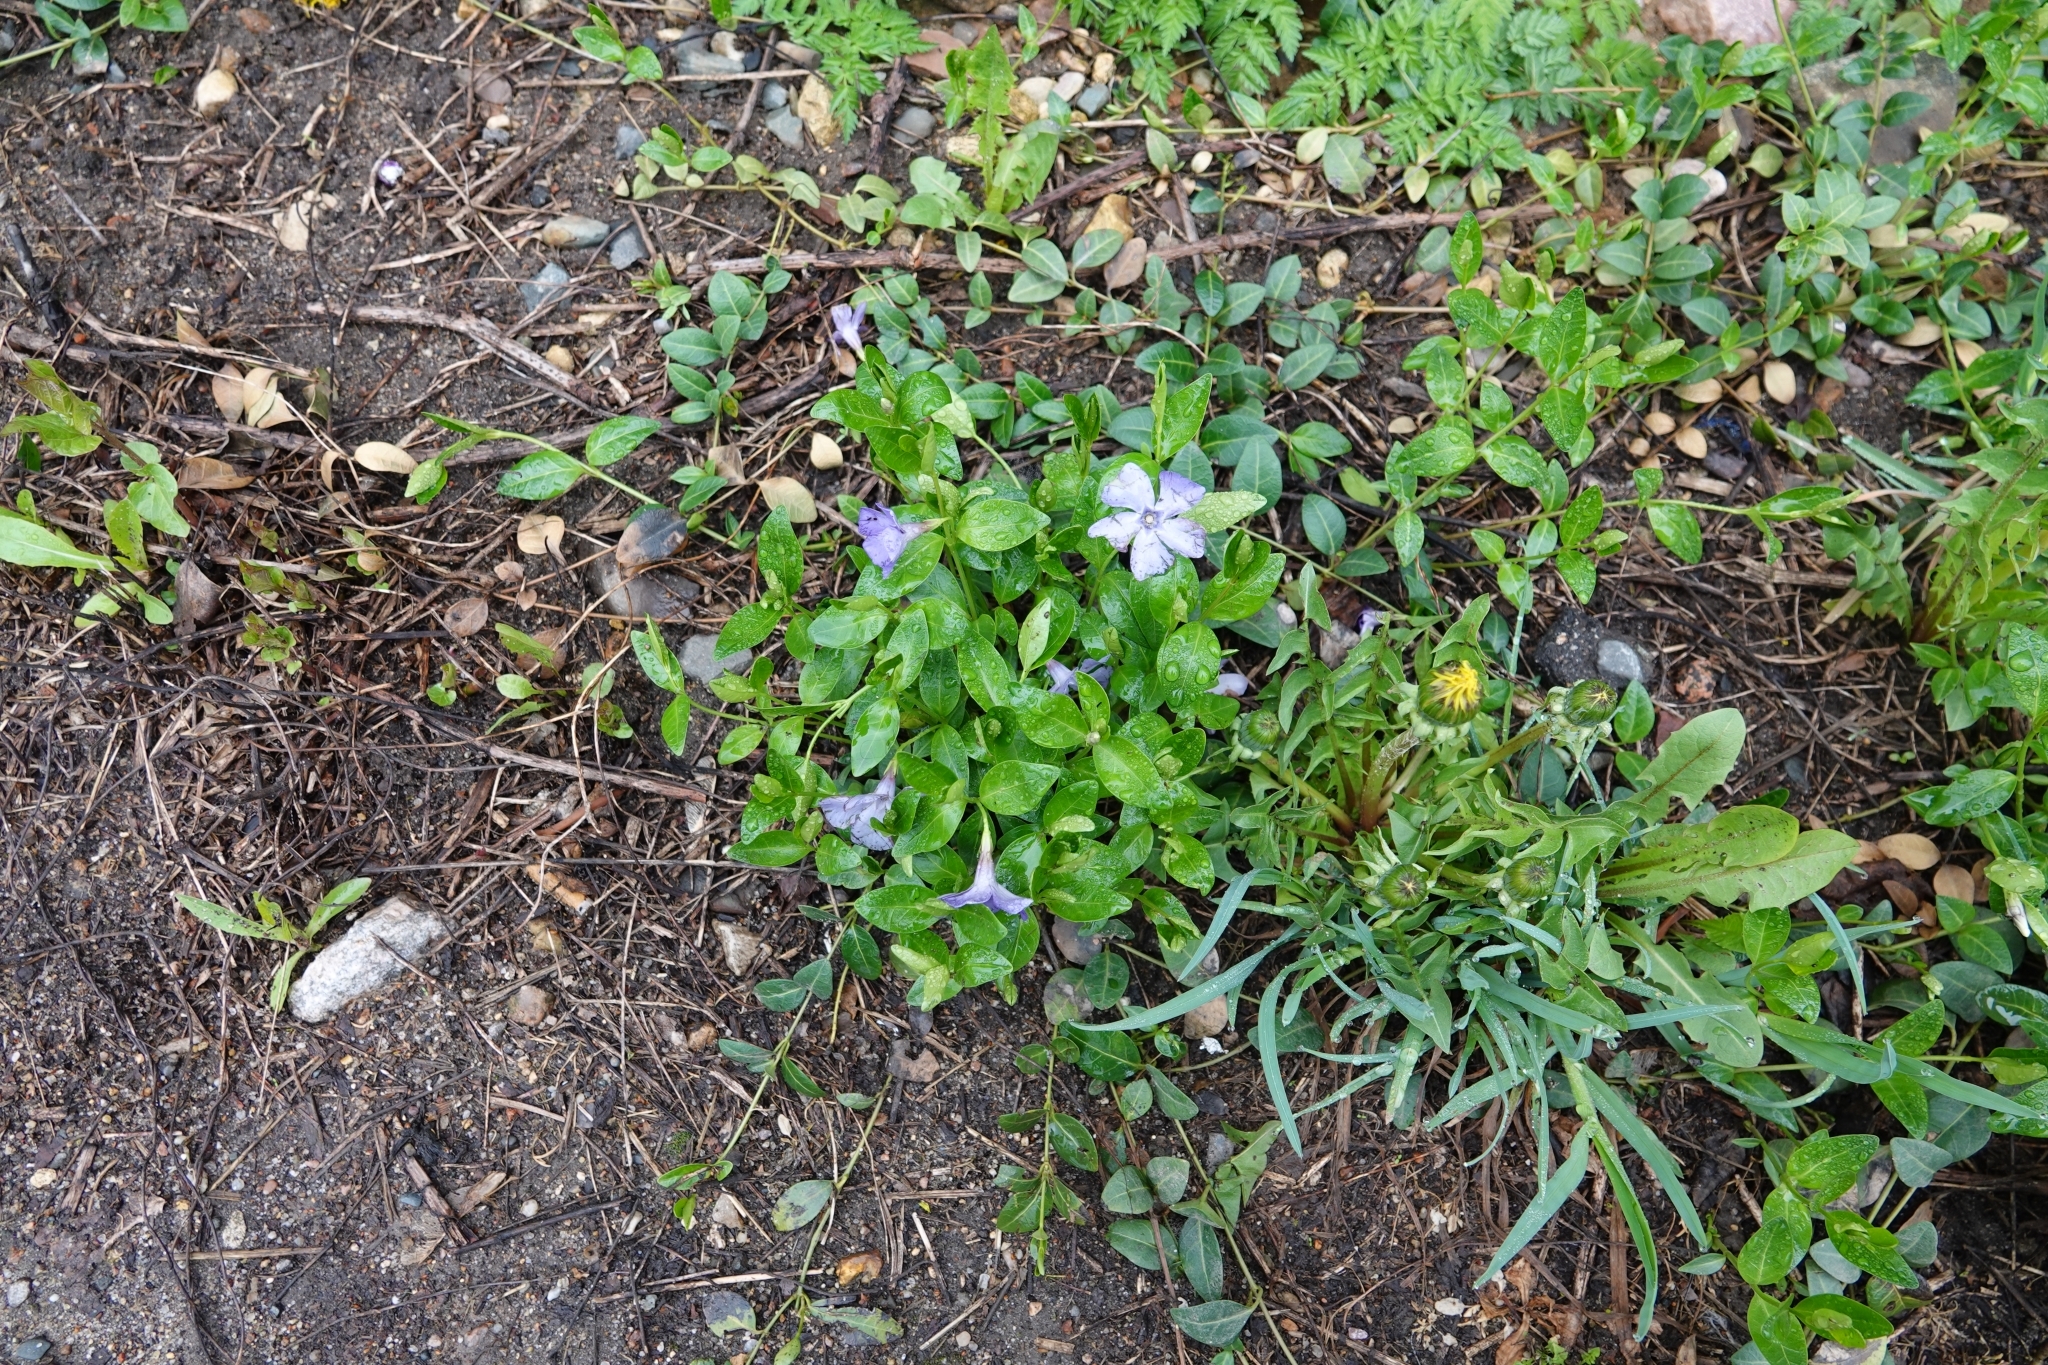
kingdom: Plantae
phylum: Tracheophyta
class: Magnoliopsida
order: Gentianales
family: Apocynaceae
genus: Vinca
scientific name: Vinca minor
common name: Lesser periwinkle
